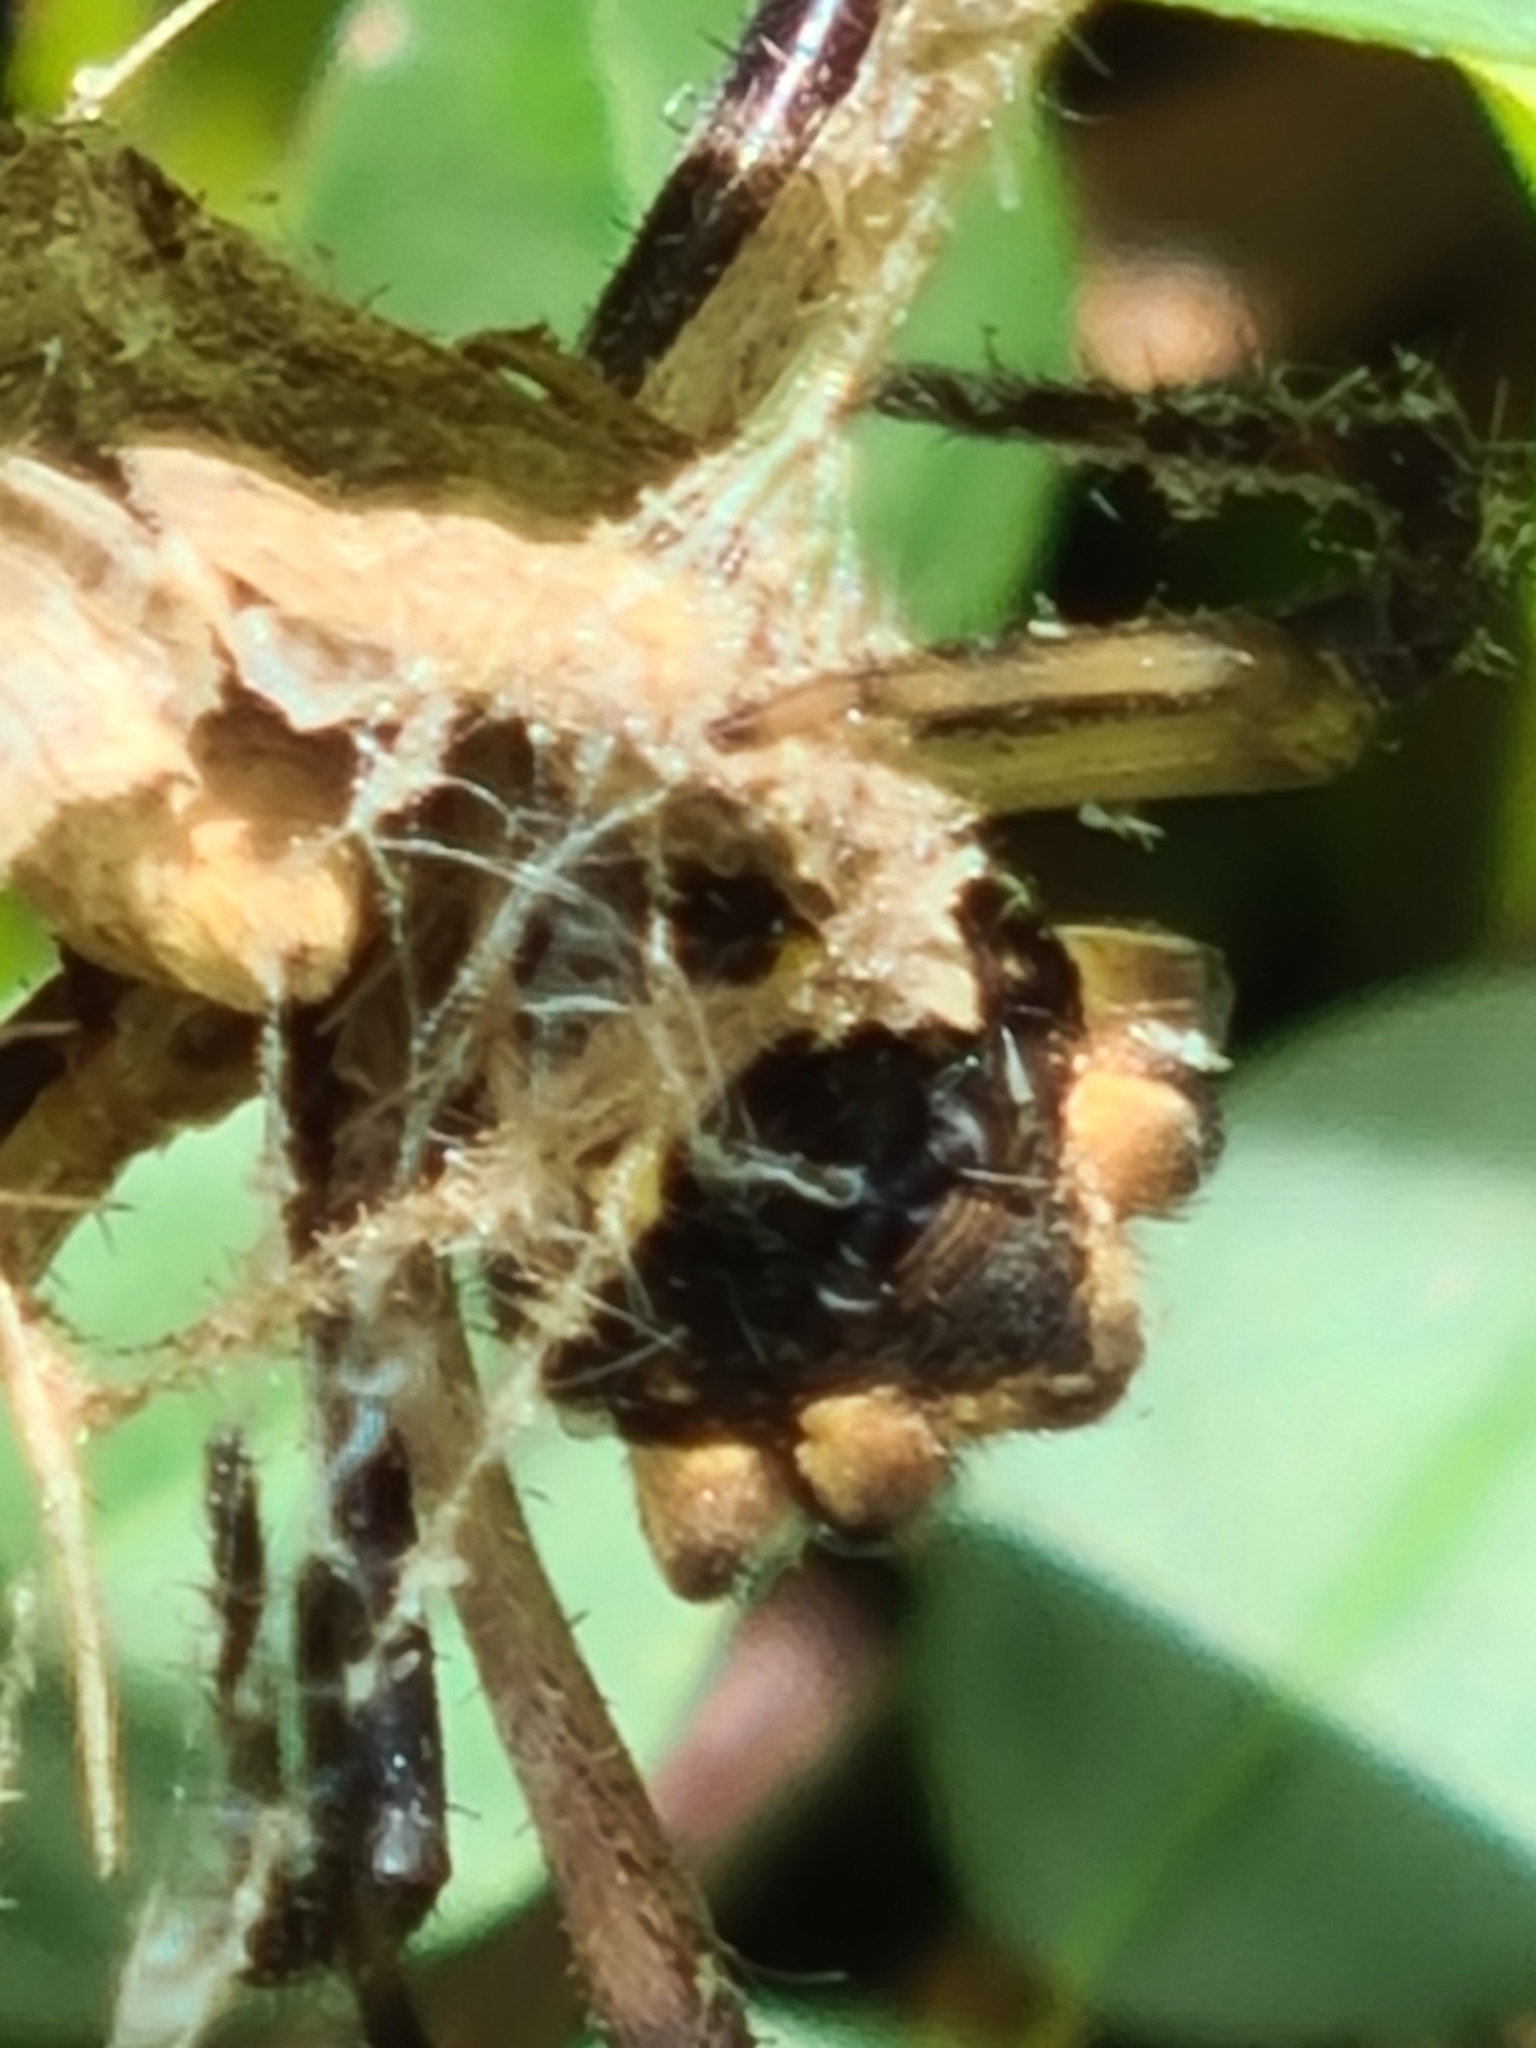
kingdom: Animalia
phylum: Arthropoda
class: Arachnida
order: Araneae
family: Araneidae
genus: Argiope
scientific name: Argiope argentata
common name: Orb weavers
